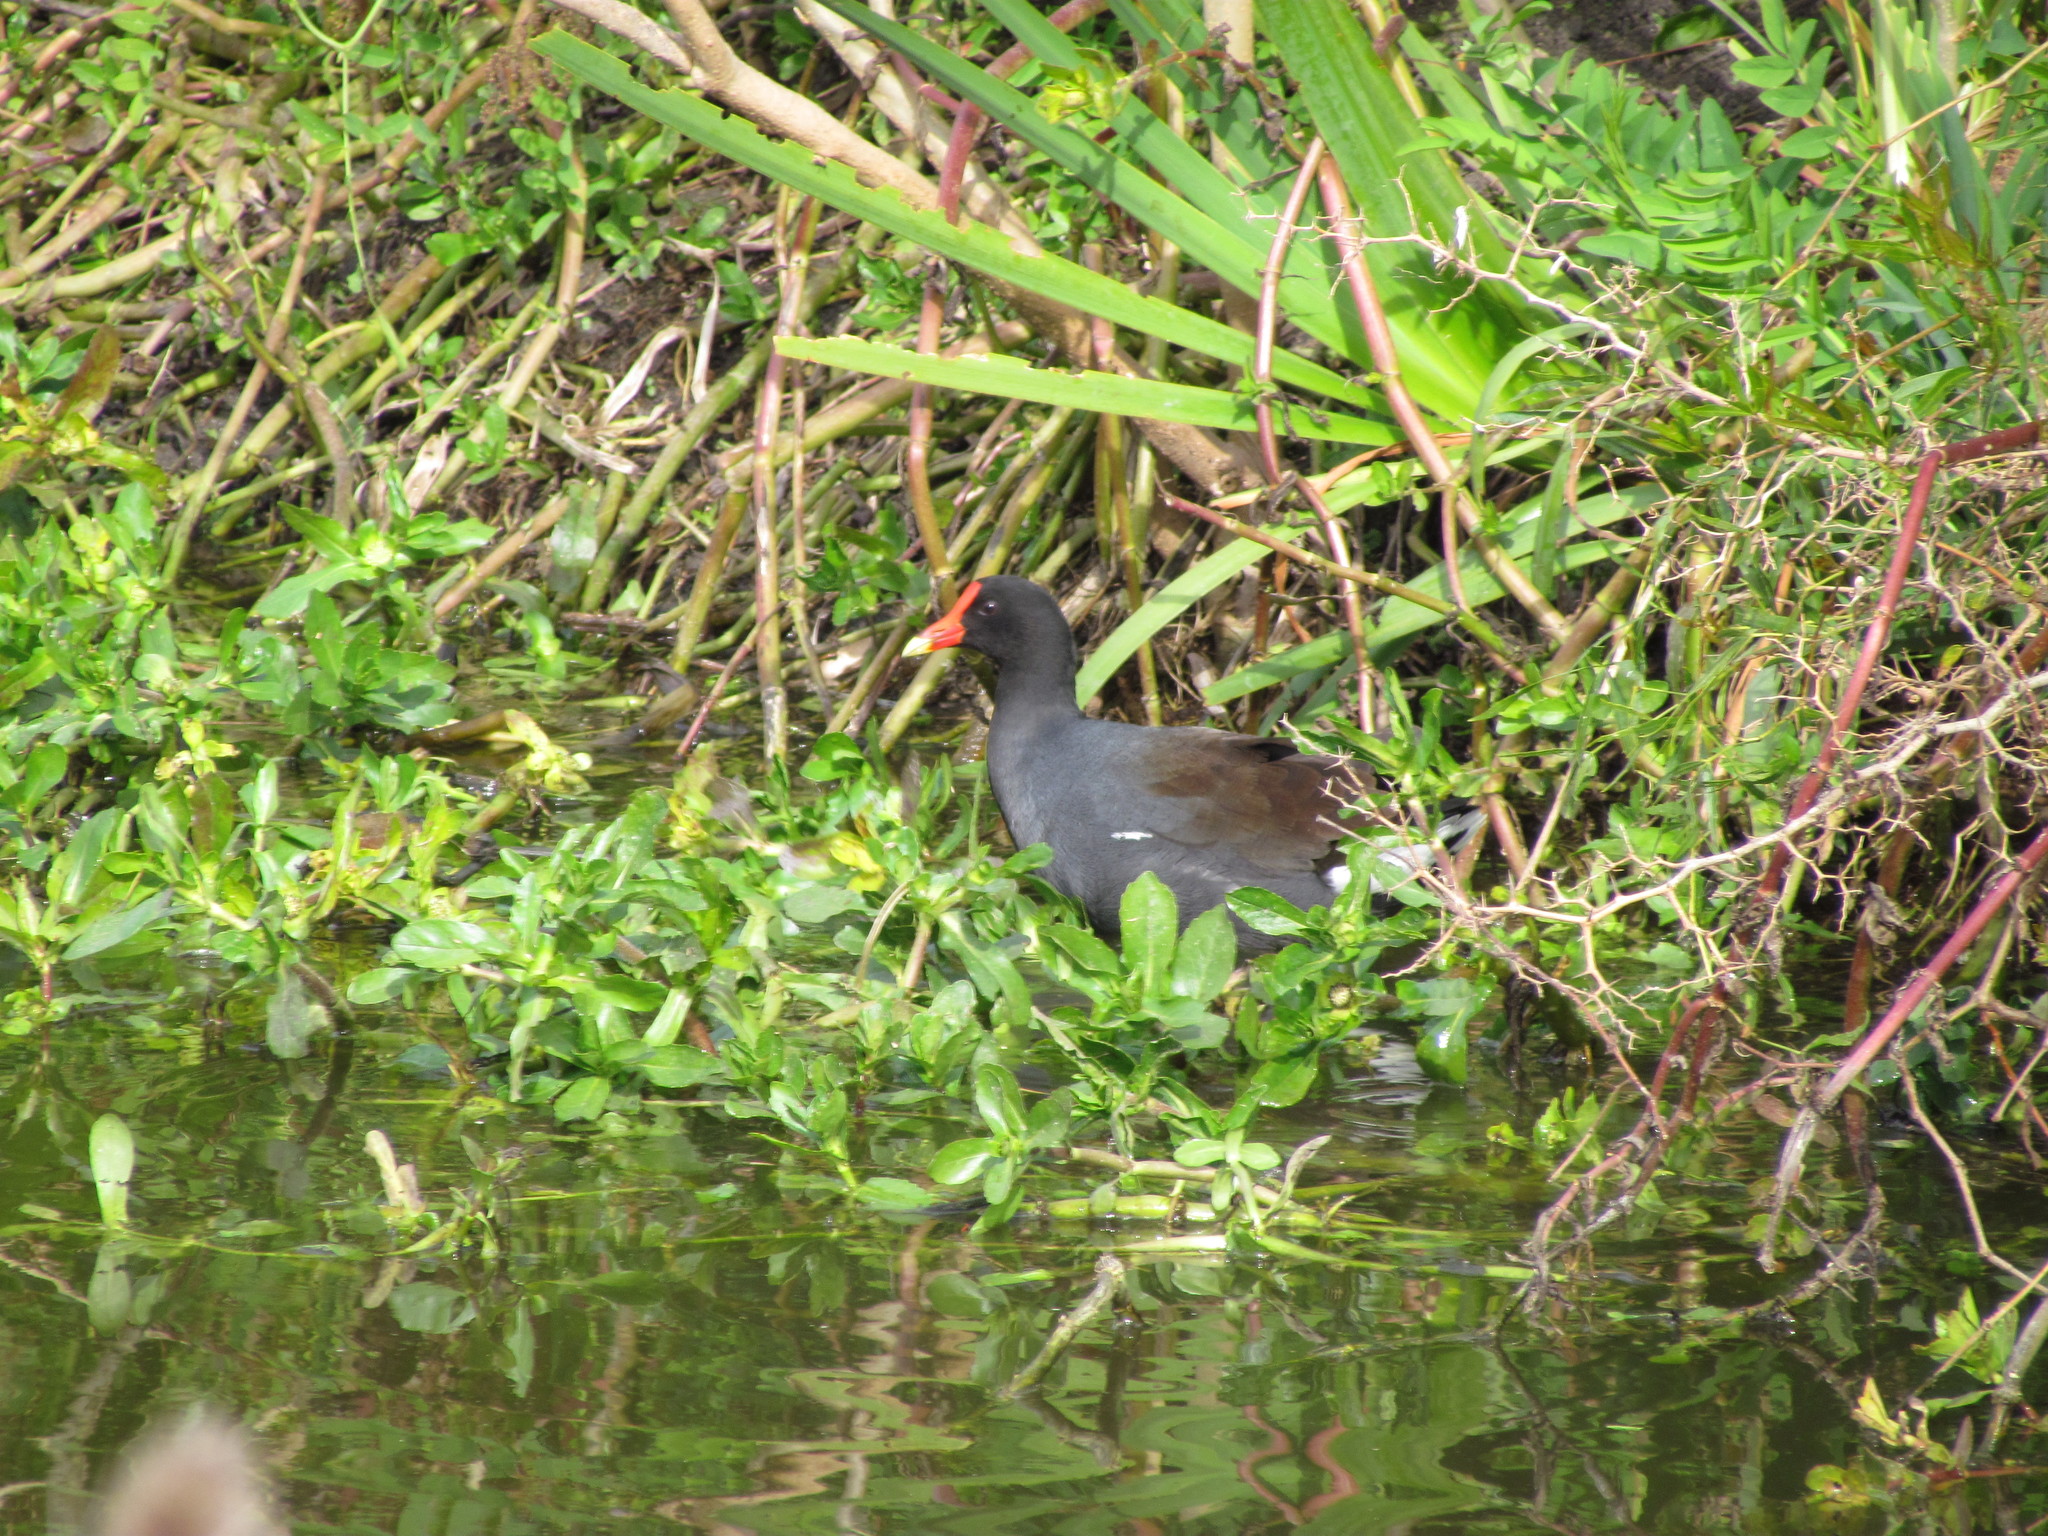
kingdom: Animalia
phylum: Chordata
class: Aves
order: Gruiformes
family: Rallidae
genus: Gallinula
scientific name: Gallinula chloropus
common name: Common moorhen
